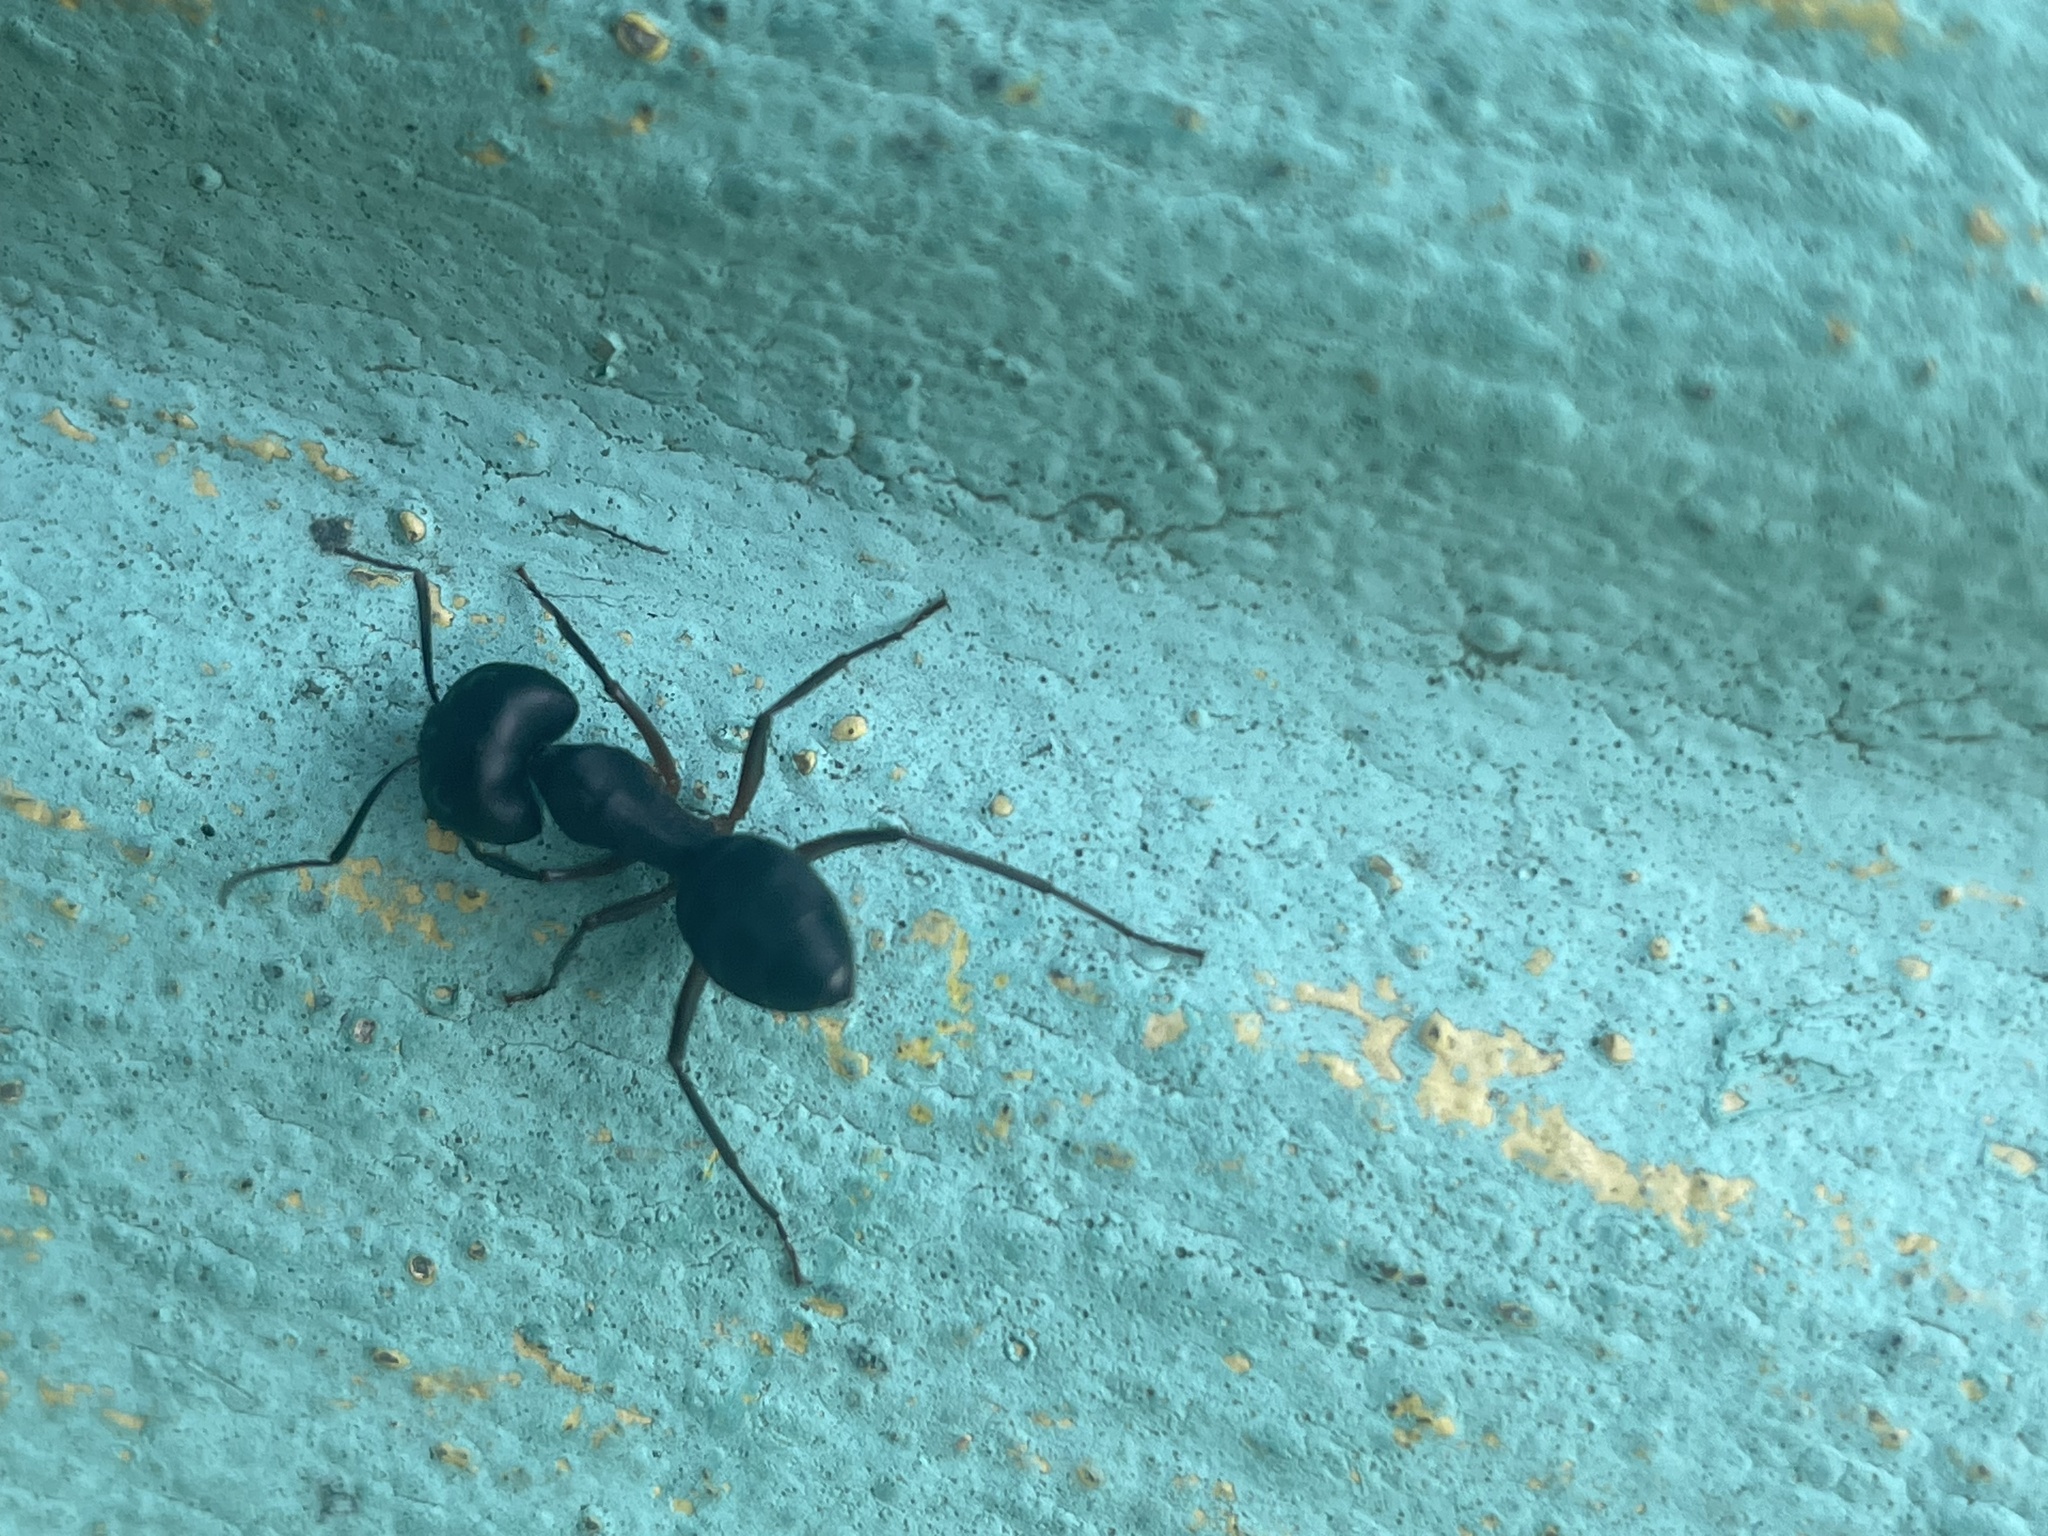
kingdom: Animalia
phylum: Arthropoda
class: Insecta
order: Hymenoptera
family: Formicidae
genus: Camponotus
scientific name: Camponotus compressus
